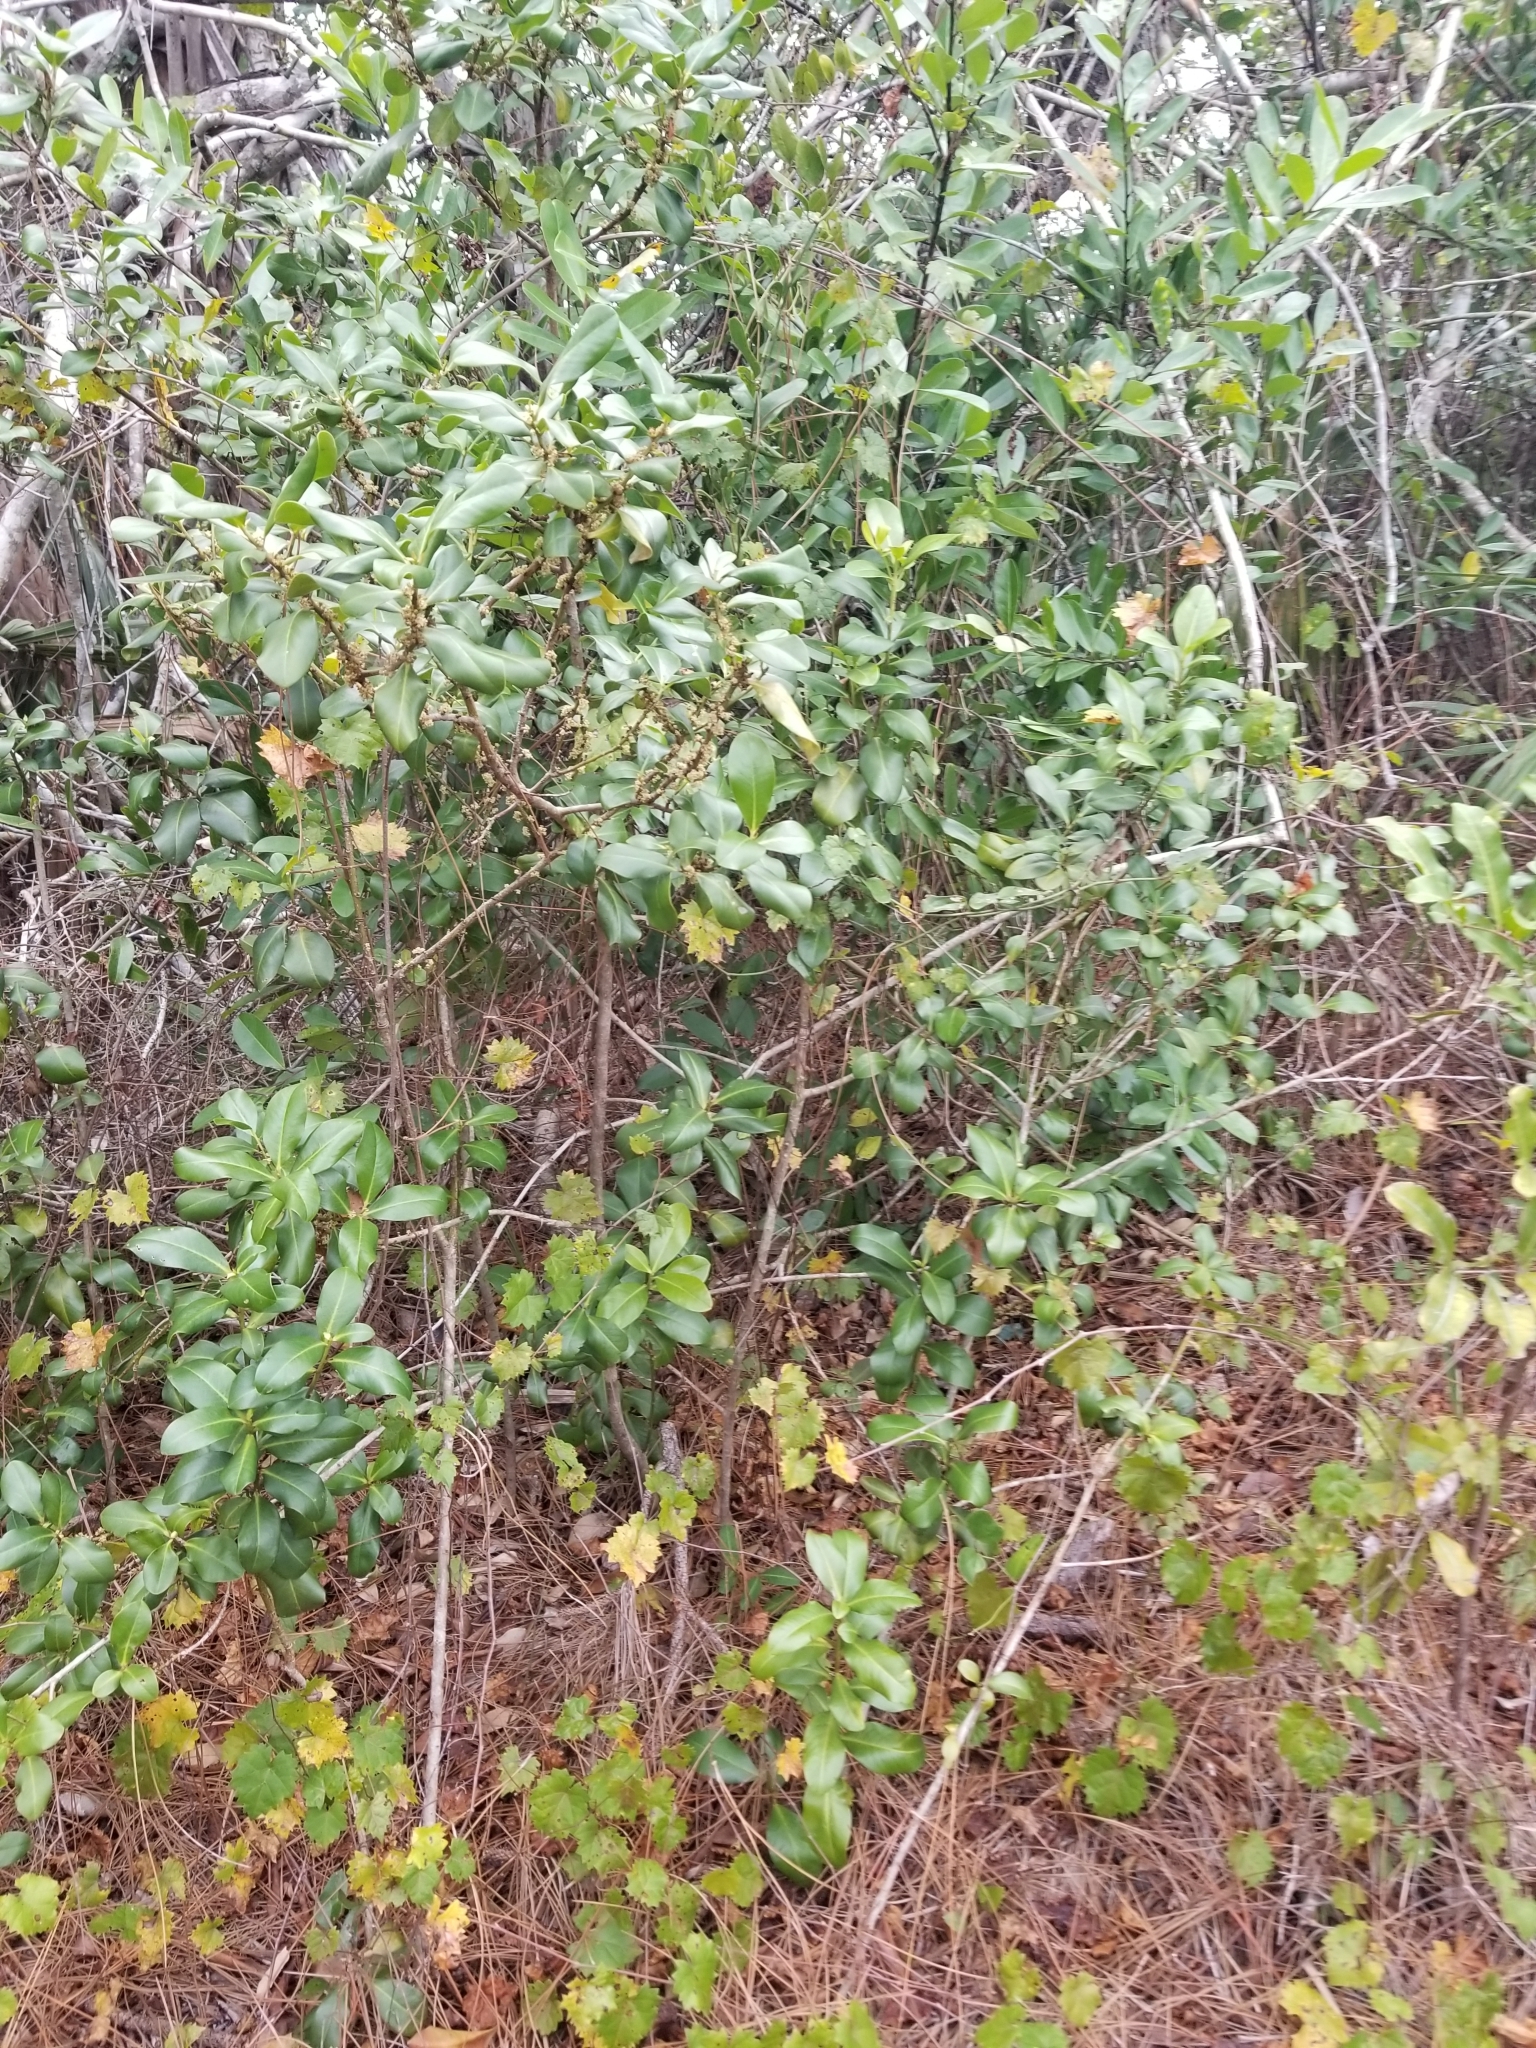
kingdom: Plantae
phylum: Tracheophyta
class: Magnoliopsida
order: Ericales
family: Primulaceae
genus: Myrsine
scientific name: Myrsine floridana
